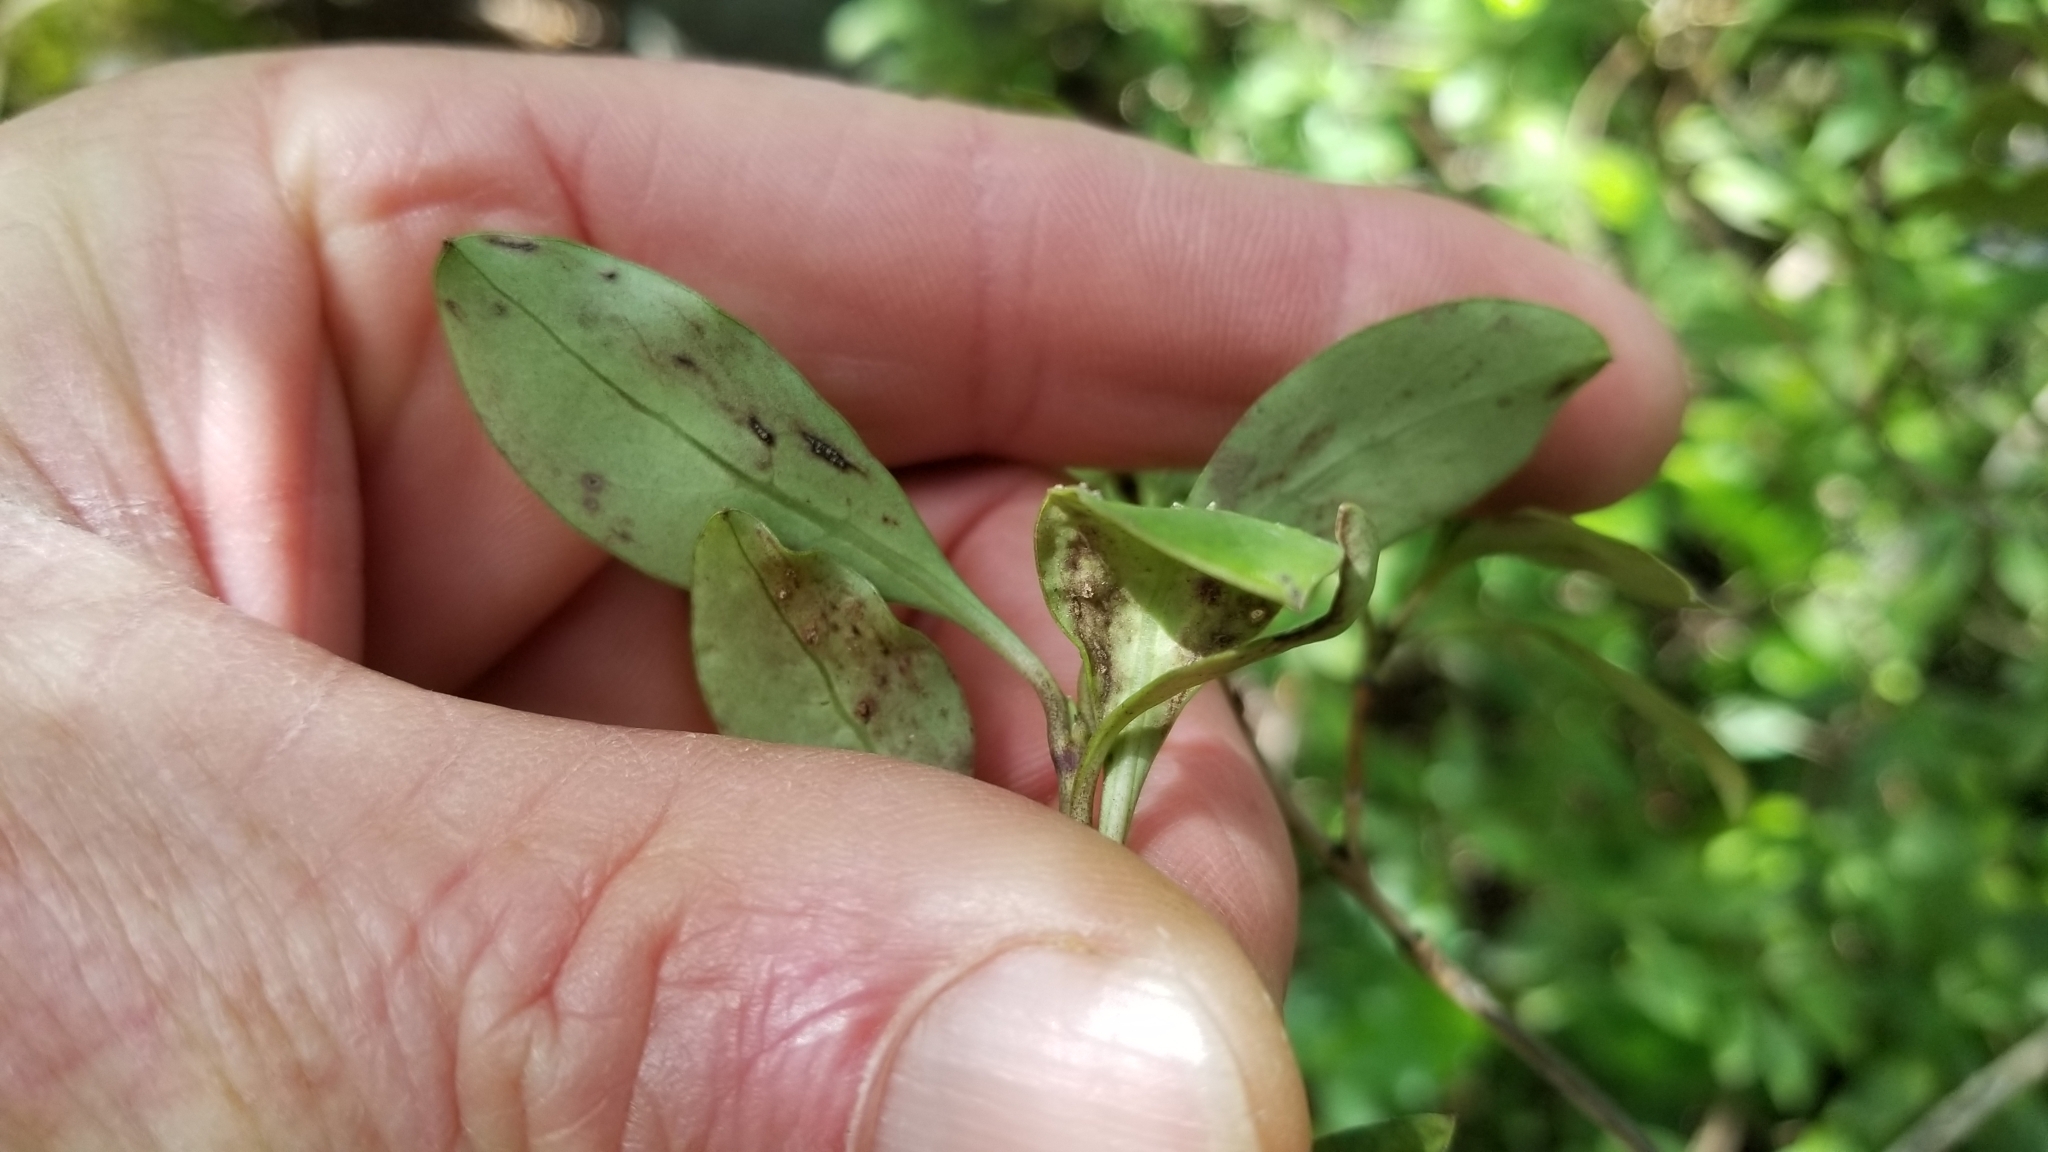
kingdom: Plantae
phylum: Tracheophyta
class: Magnoliopsida
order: Gentianales
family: Rubiaceae
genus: Coprosma
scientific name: Coprosma foetidissima
